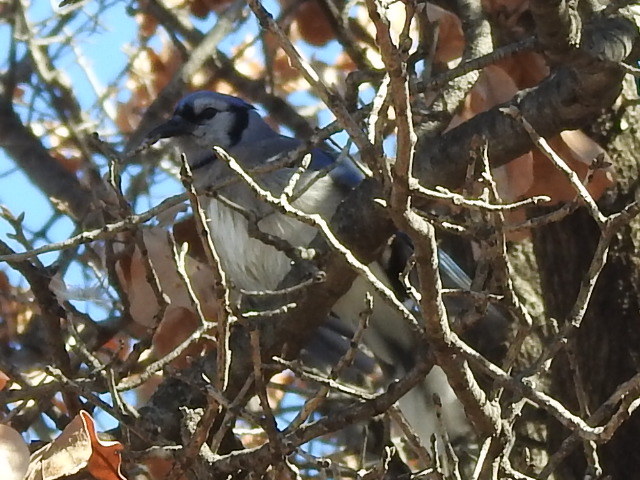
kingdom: Animalia
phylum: Chordata
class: Aves
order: Passeriformes
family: Corvidae
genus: Cyanocitta
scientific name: Cyanocitta cristata
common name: Blue jay
